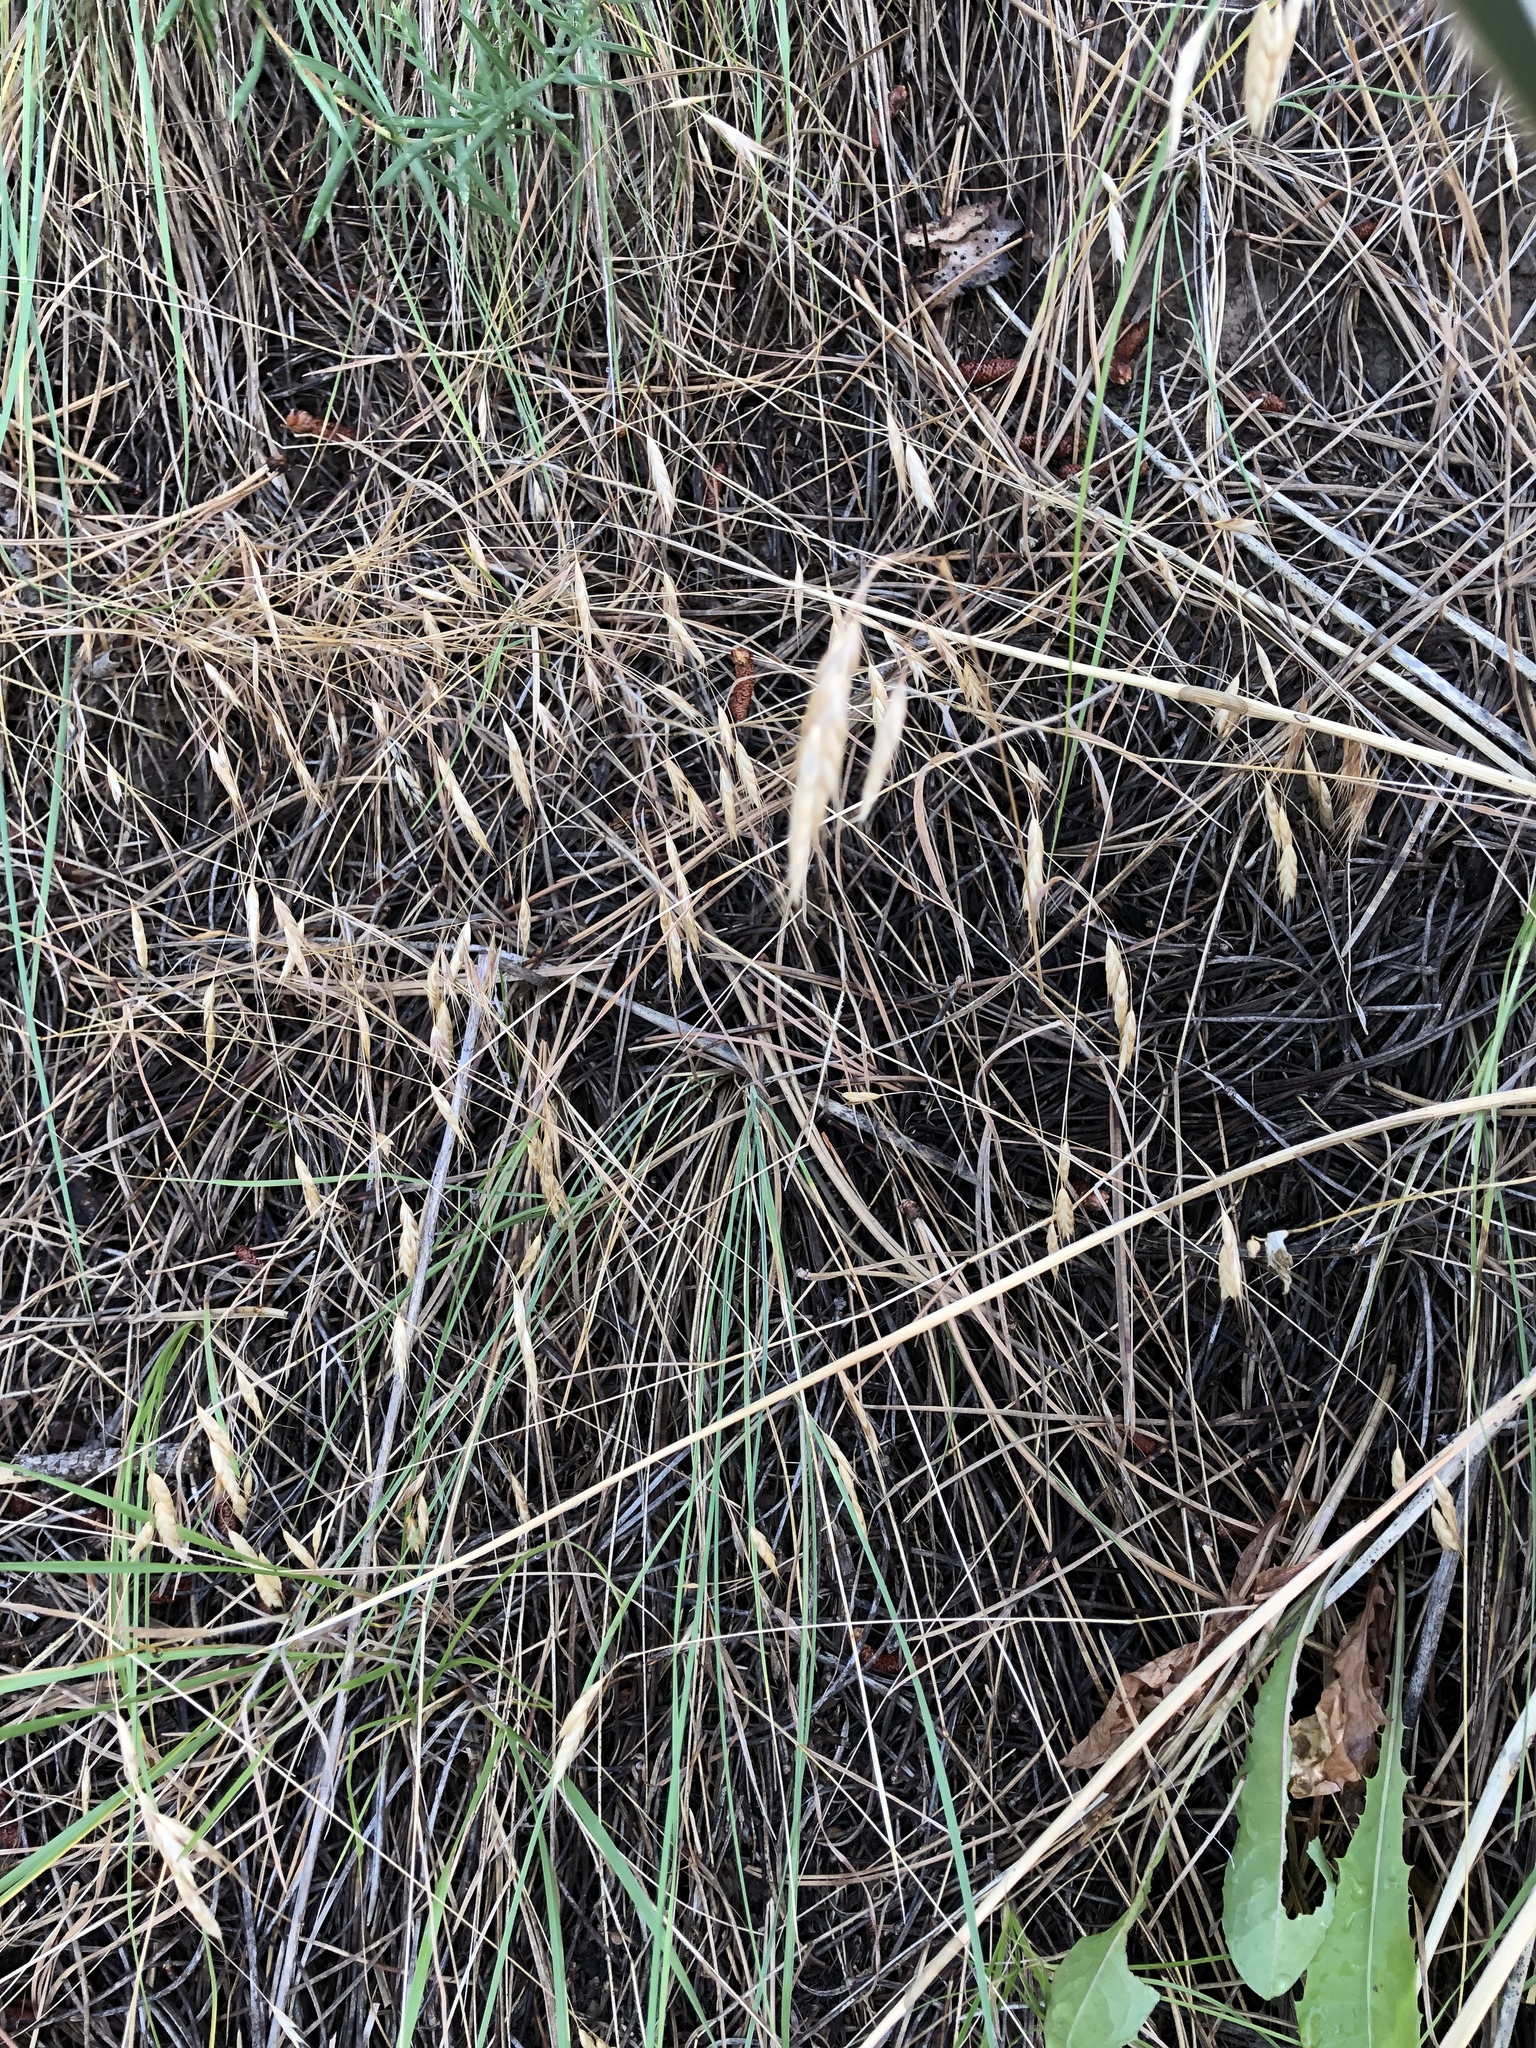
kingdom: Plantae
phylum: Tracheophyta
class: Liliopsida
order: Poales
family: Poaceae
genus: Bromus
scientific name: Bromus japonicus
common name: Japanese brome
